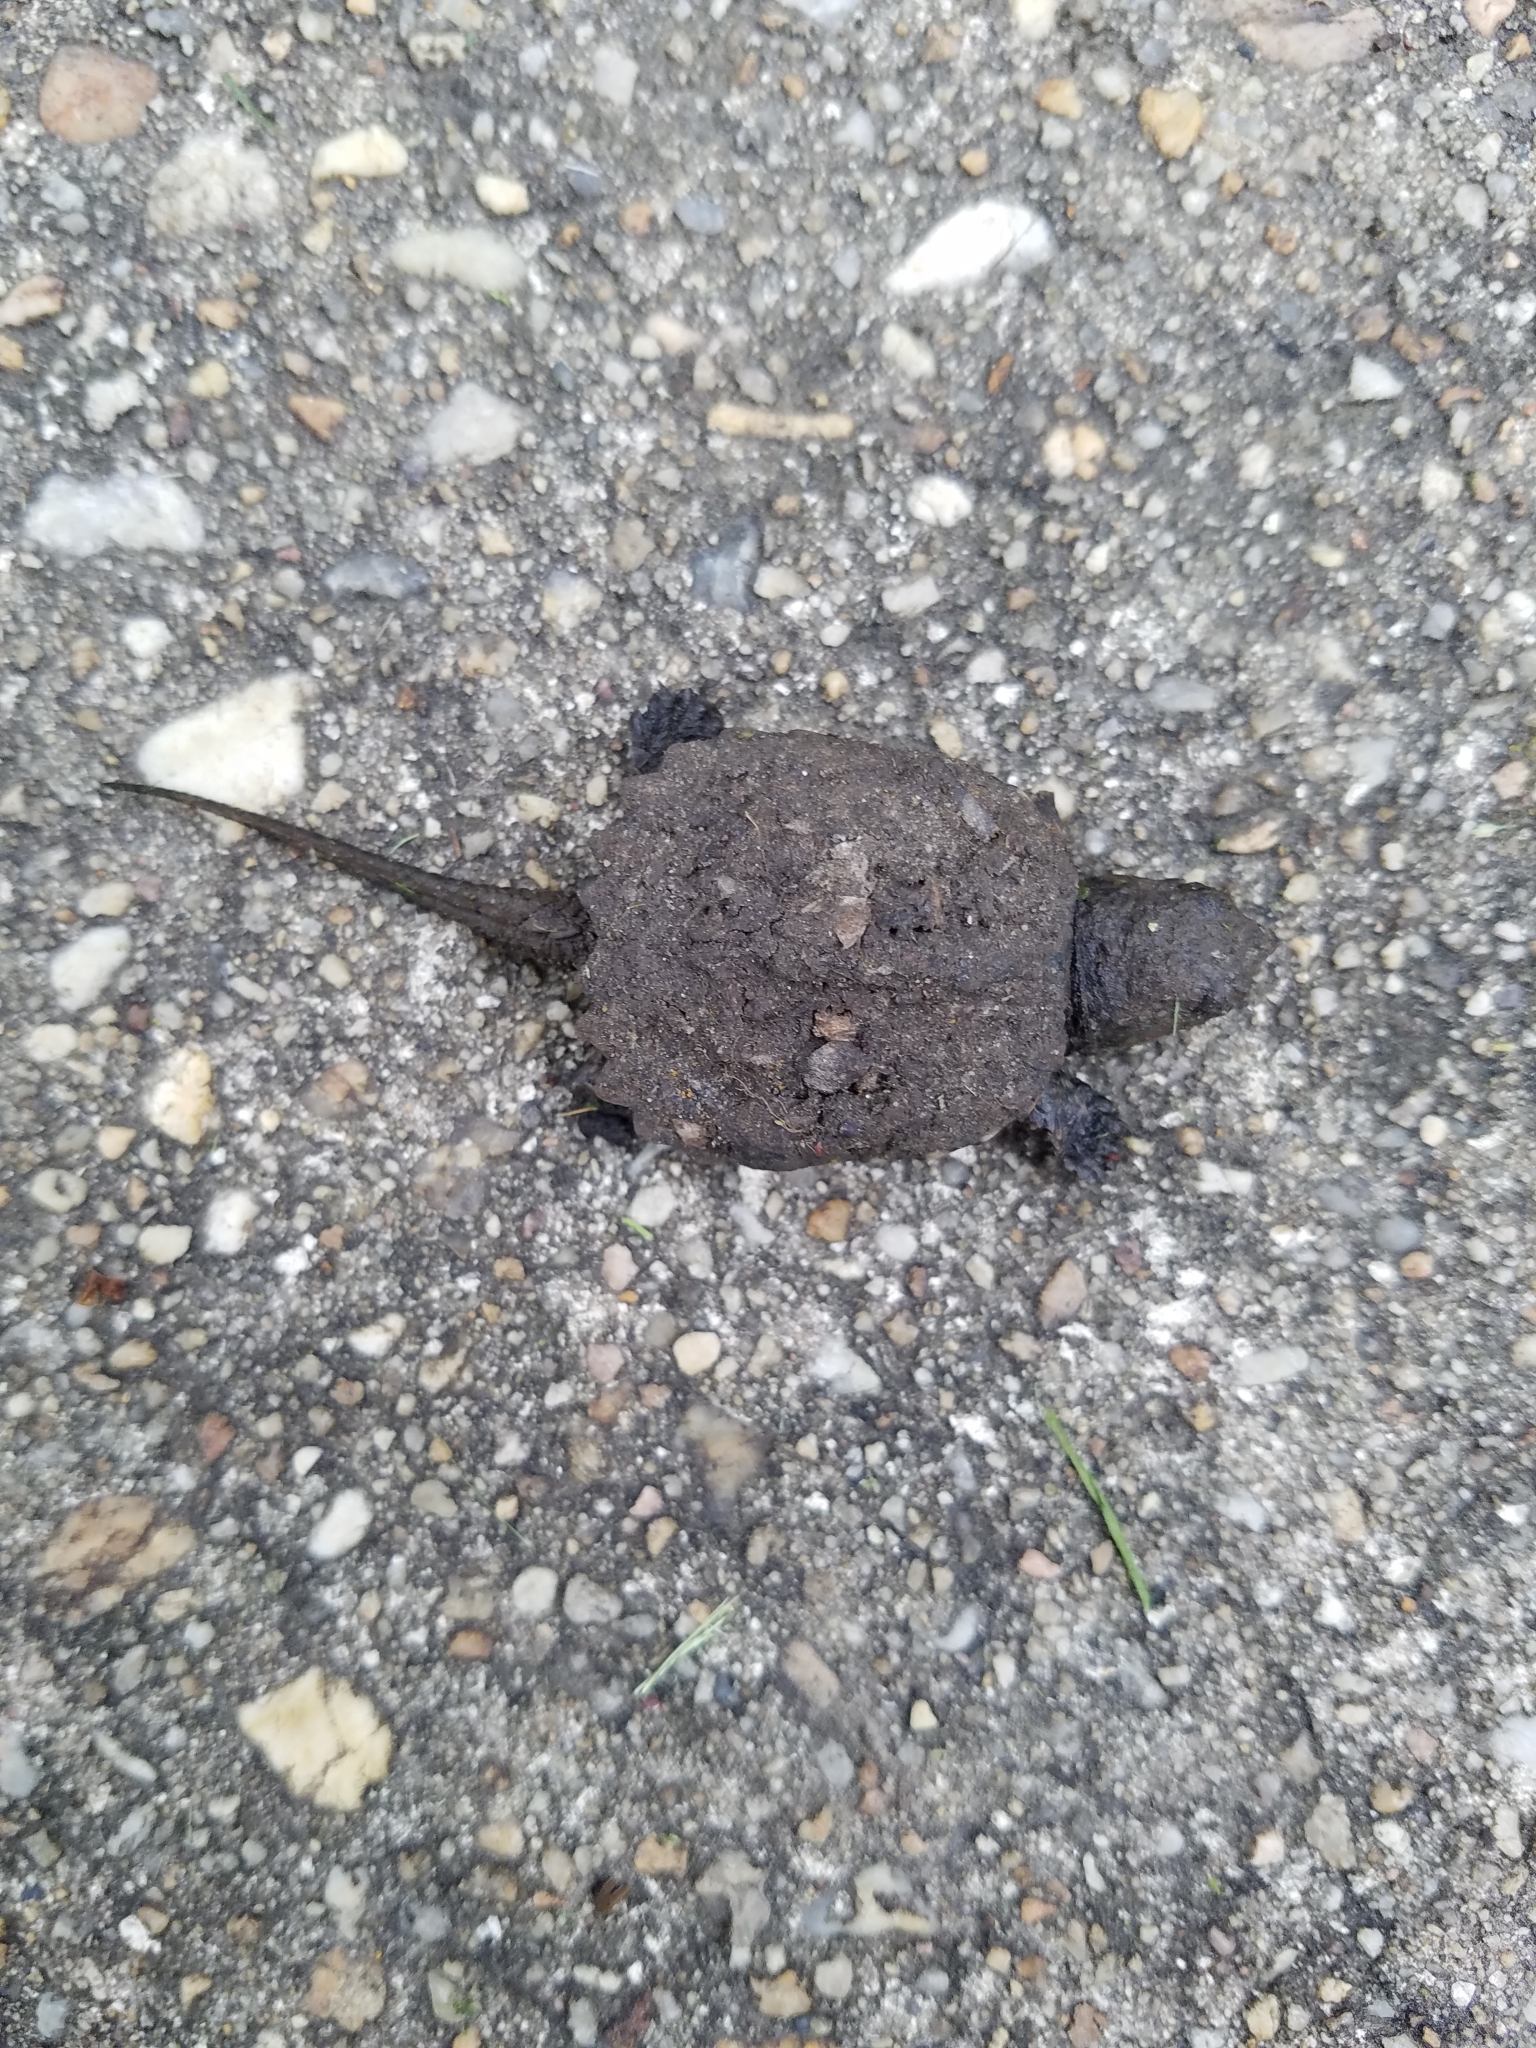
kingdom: Animalia
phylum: Chordata
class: Testudines
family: Chelydridae
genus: Chelydra
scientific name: Chelydra serpentina
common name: Common snapping turtle
